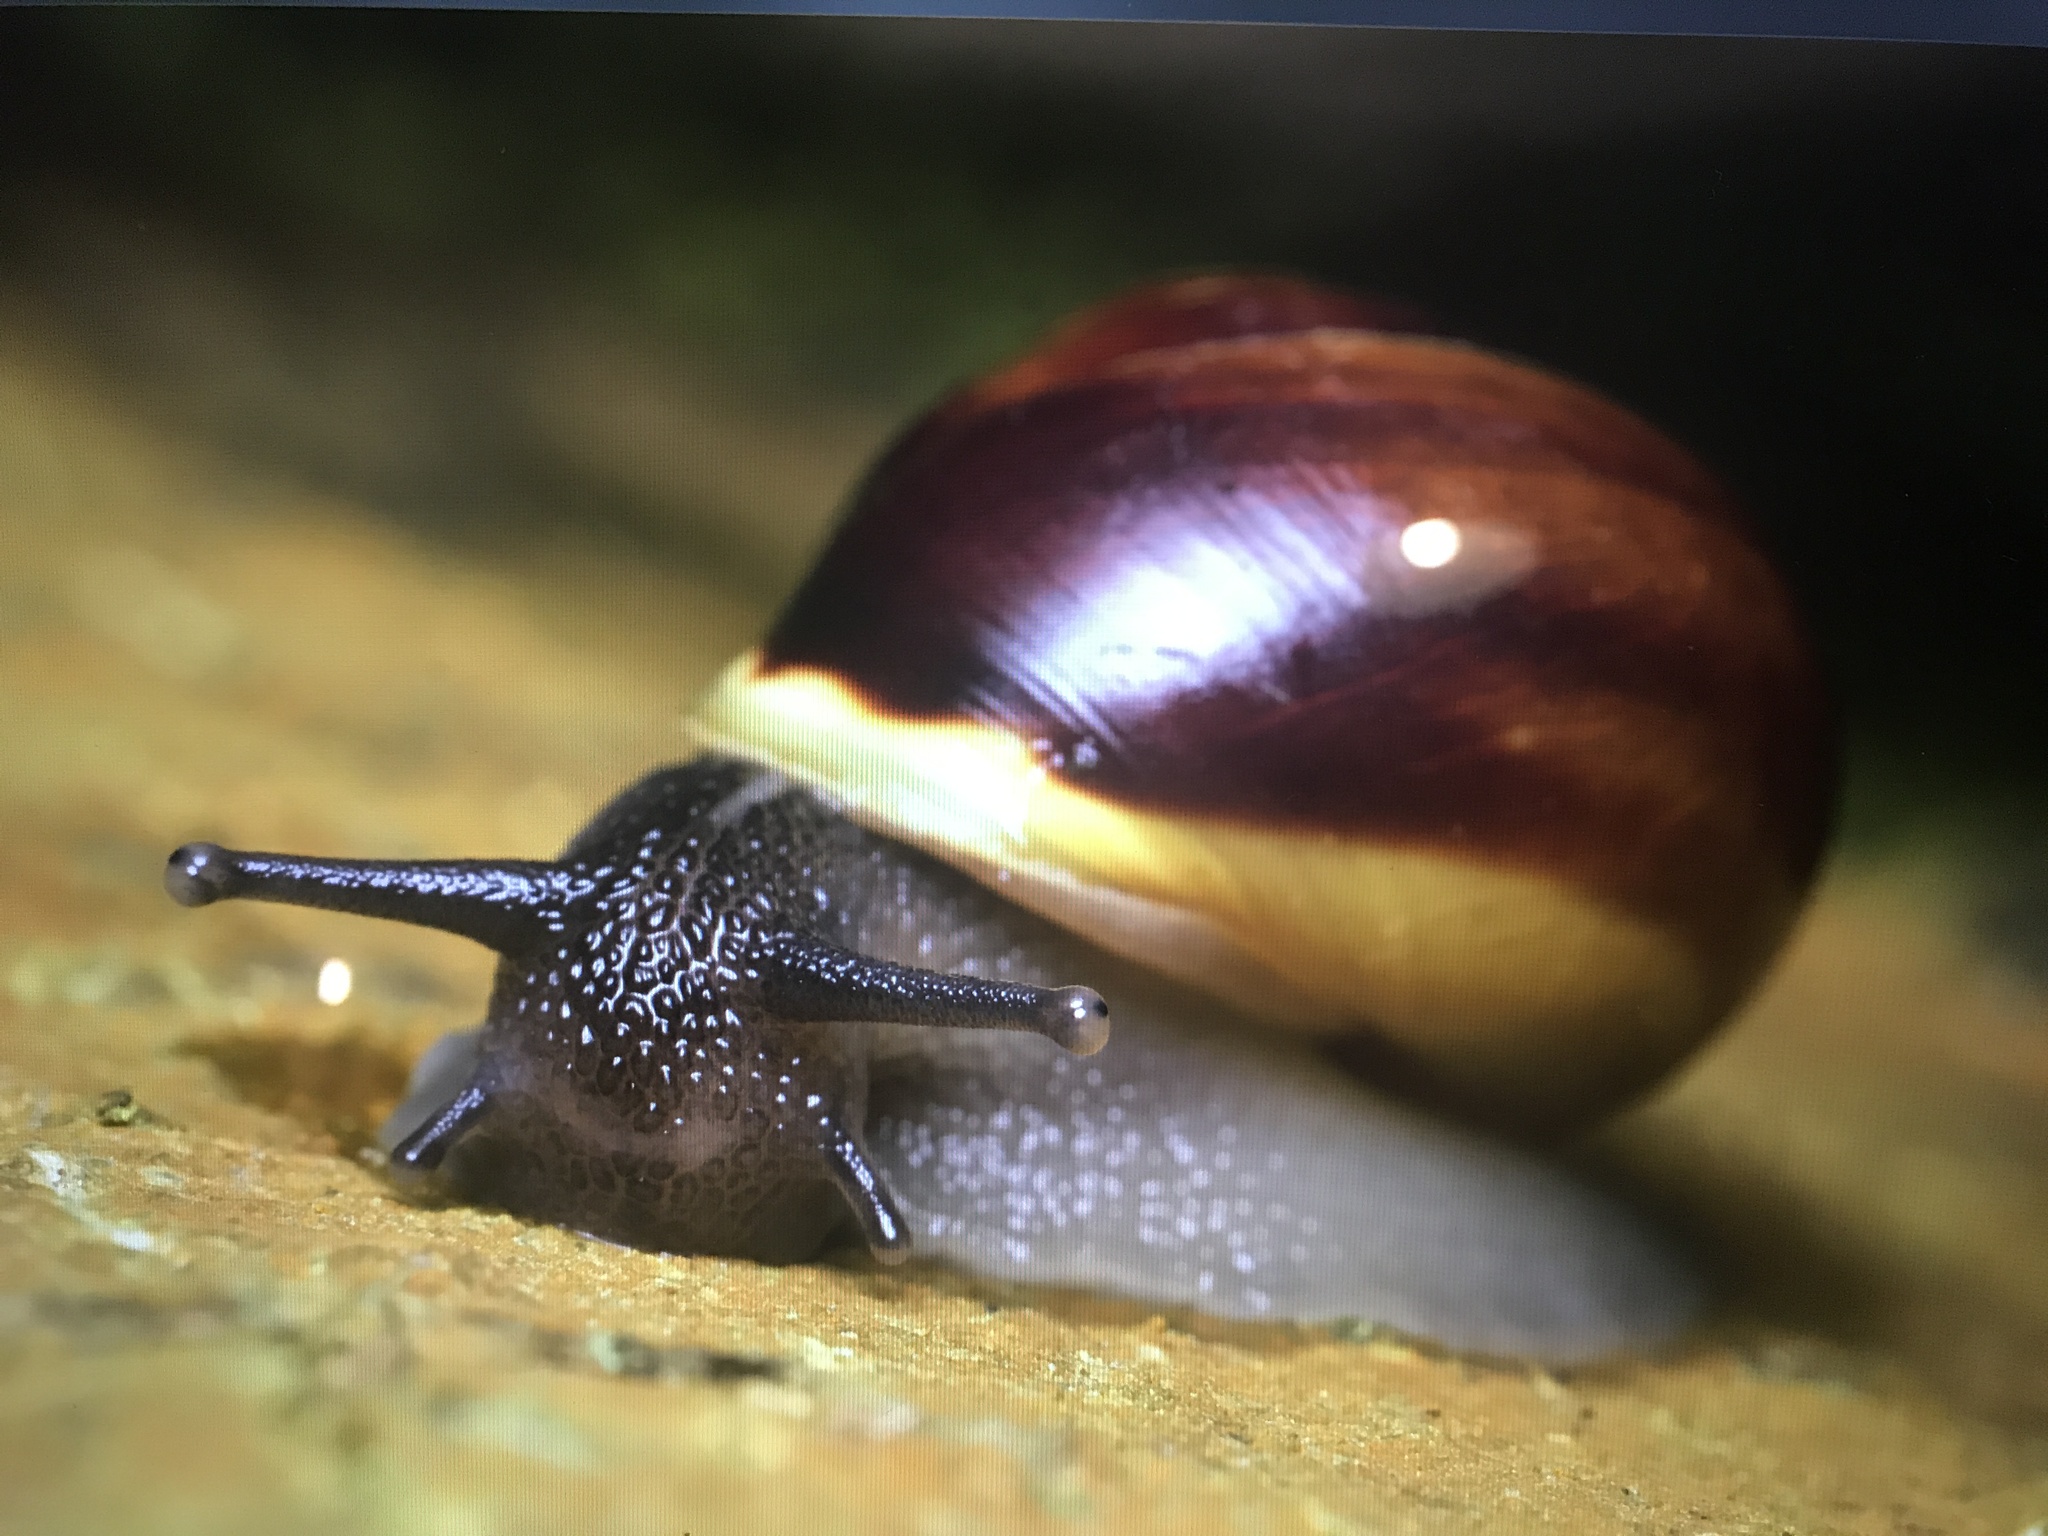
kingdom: Animalia
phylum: Mollusca
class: Gastropoda
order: Stylommatophora
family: Helicidae
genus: Cepaea
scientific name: Cepaea hortensis
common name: White-lip gardensnail
